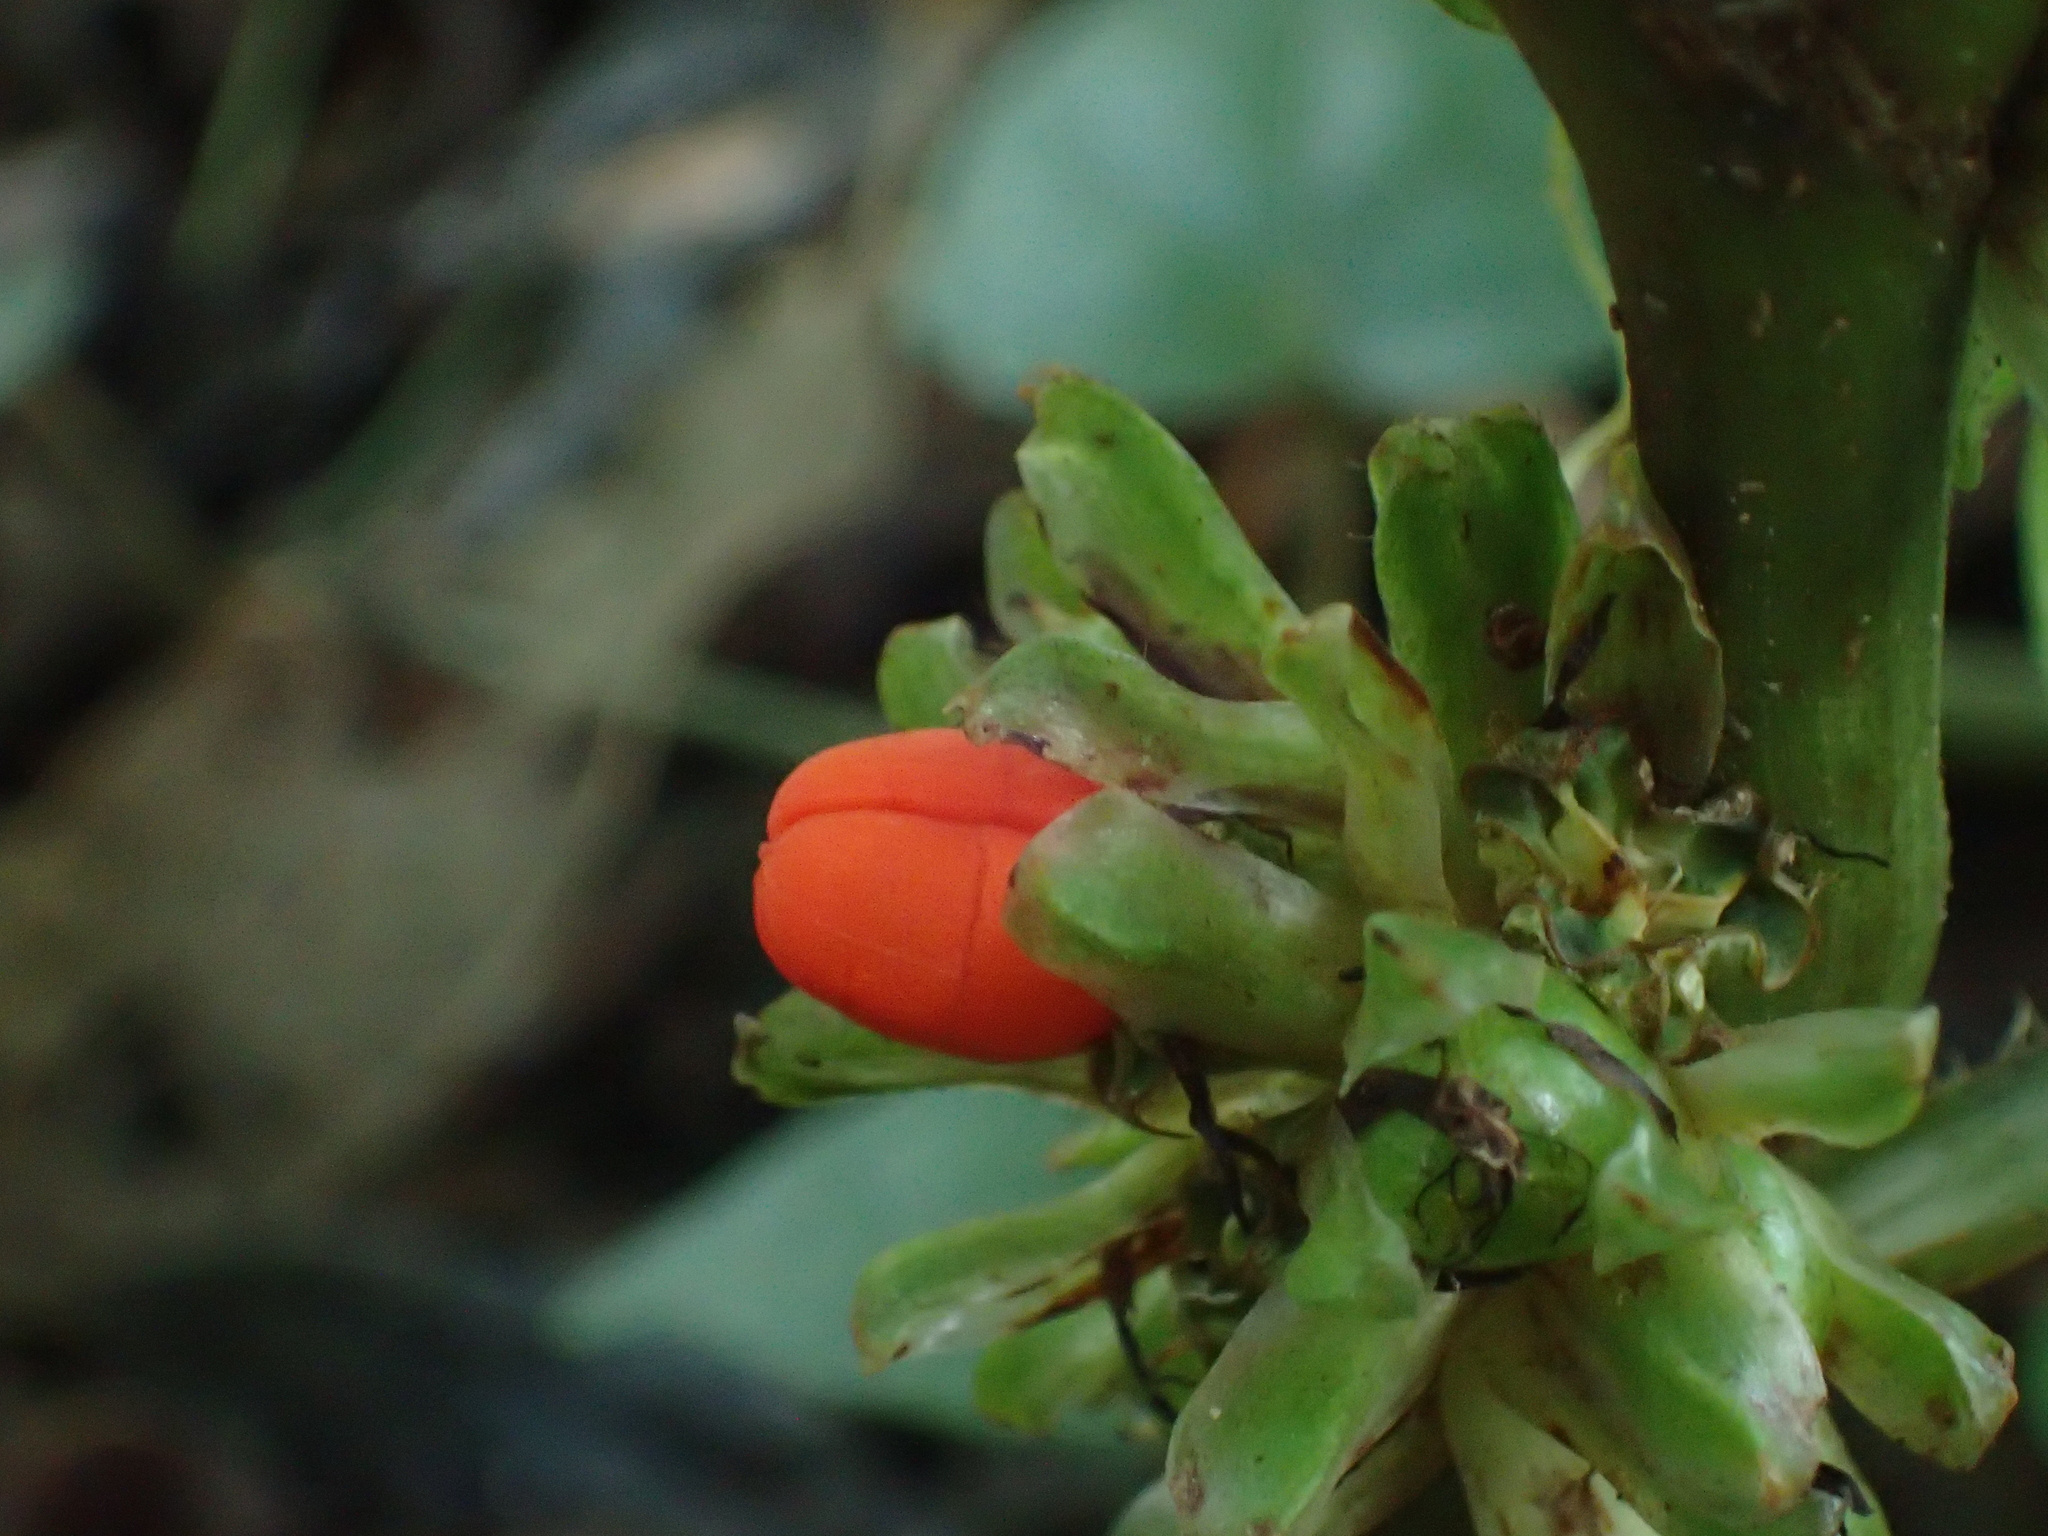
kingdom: Plantae
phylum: Tracheophyta
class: Liliopsida
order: Commelinales
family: Commelinaceae
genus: Amischotolype
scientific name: Amischotolype glabrata
